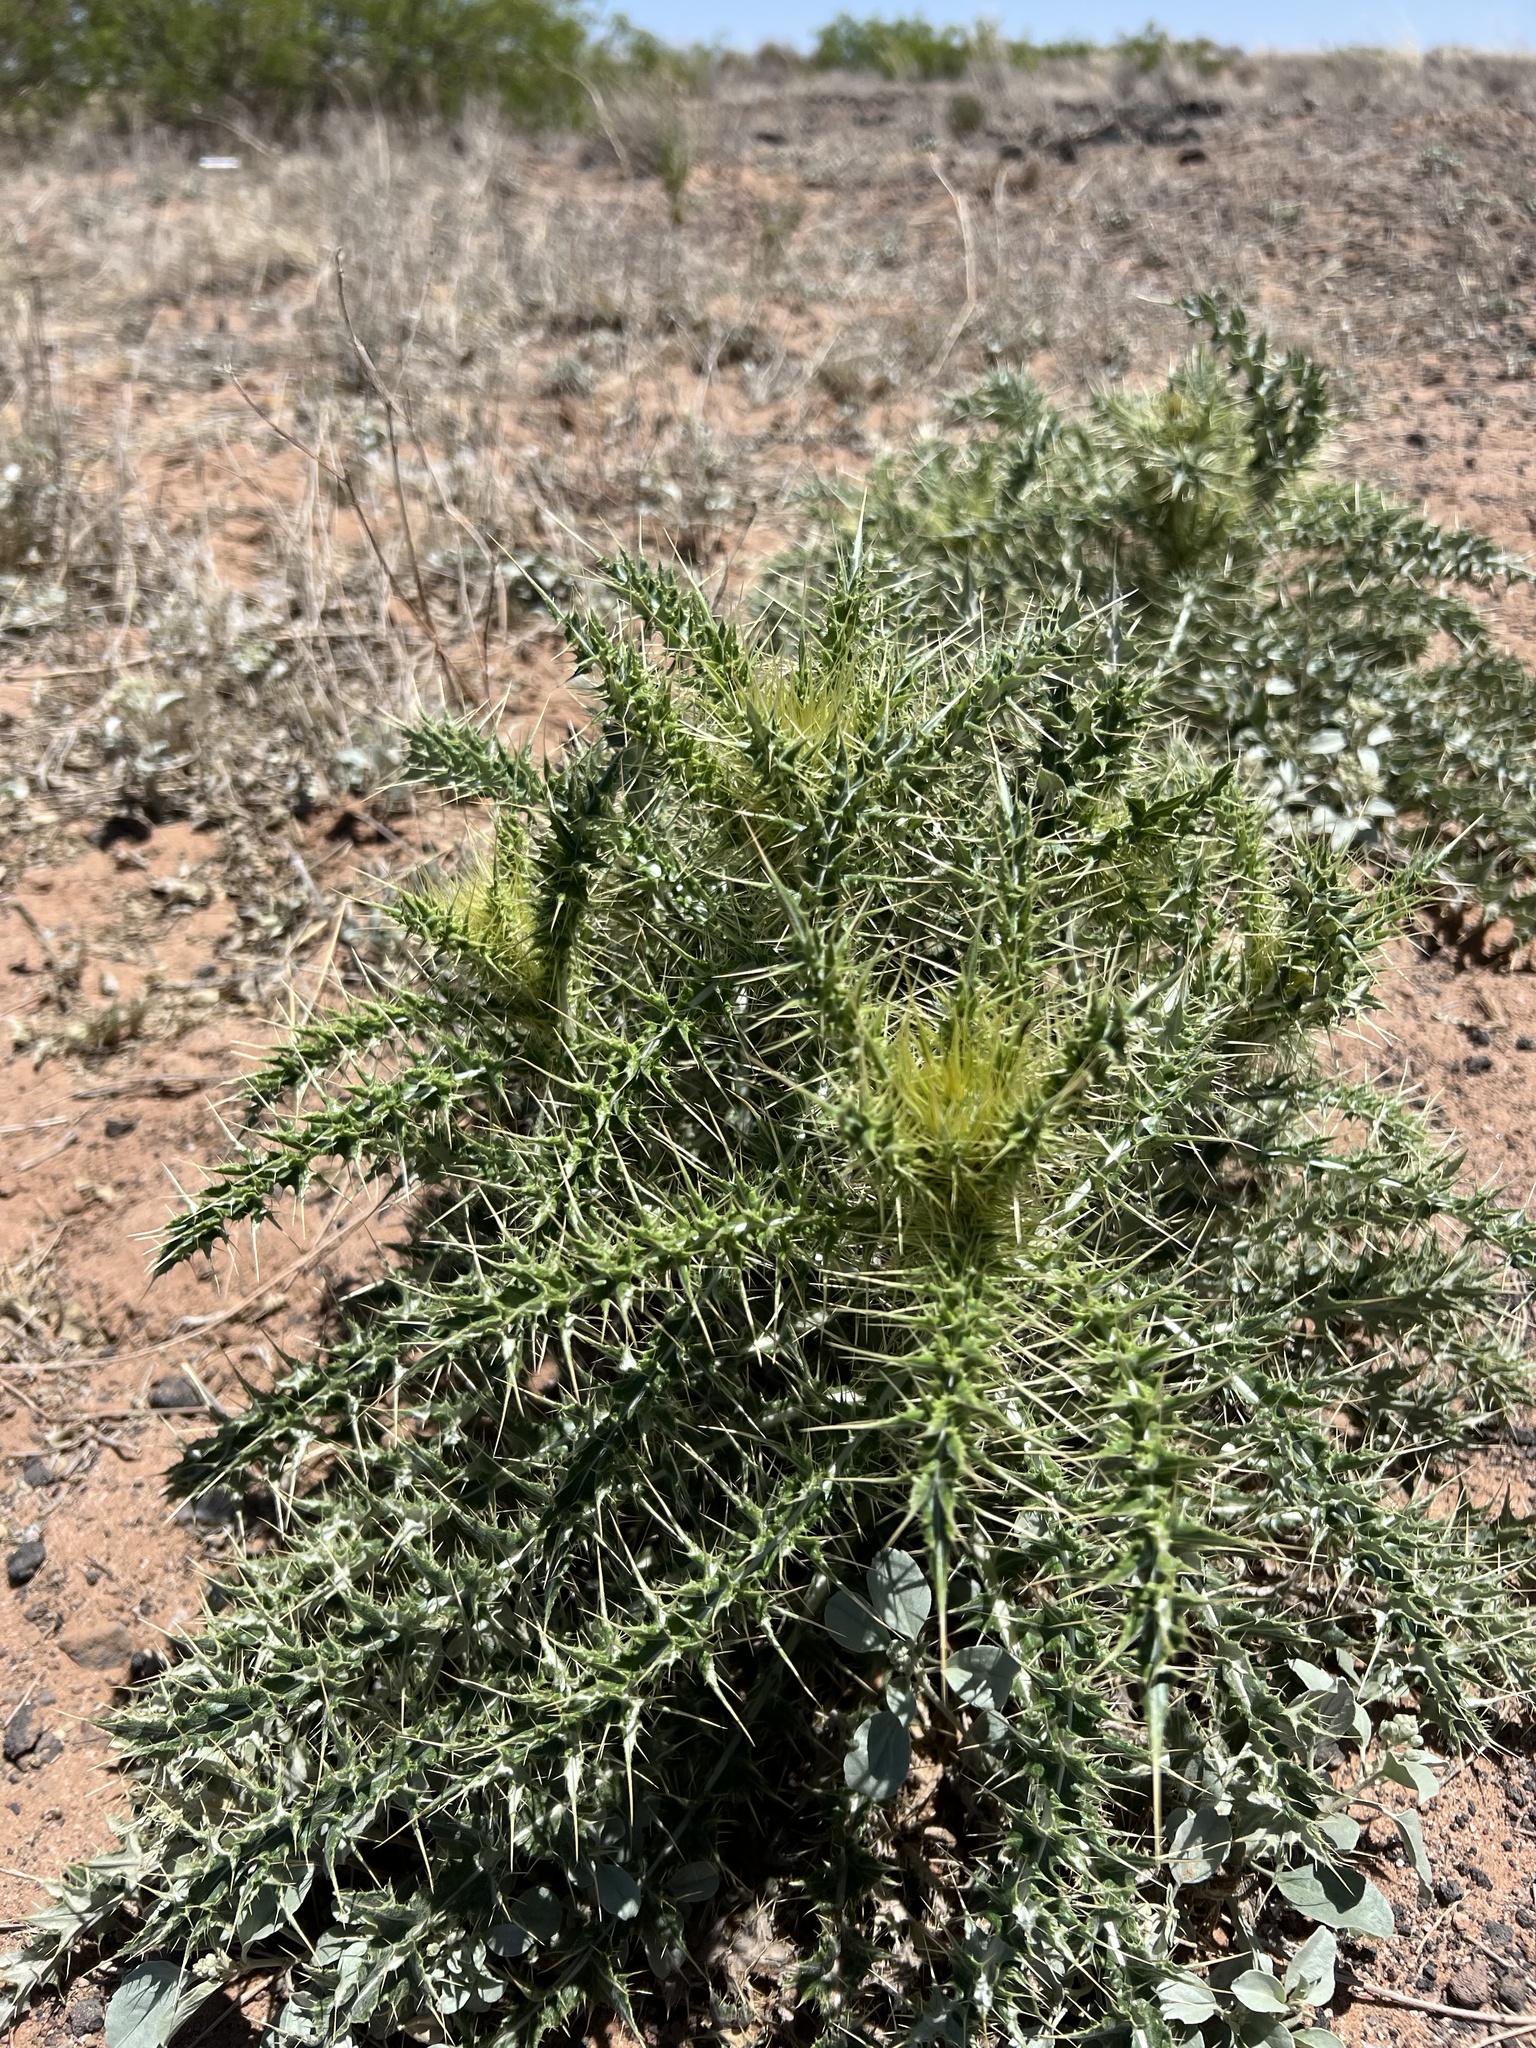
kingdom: Plantae
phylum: Tracheophyta
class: Magnoliopsida
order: Asterales
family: Asteraceae
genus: Cirsium
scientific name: Cirsium ochrocentrum
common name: Yellow-spine thistle
